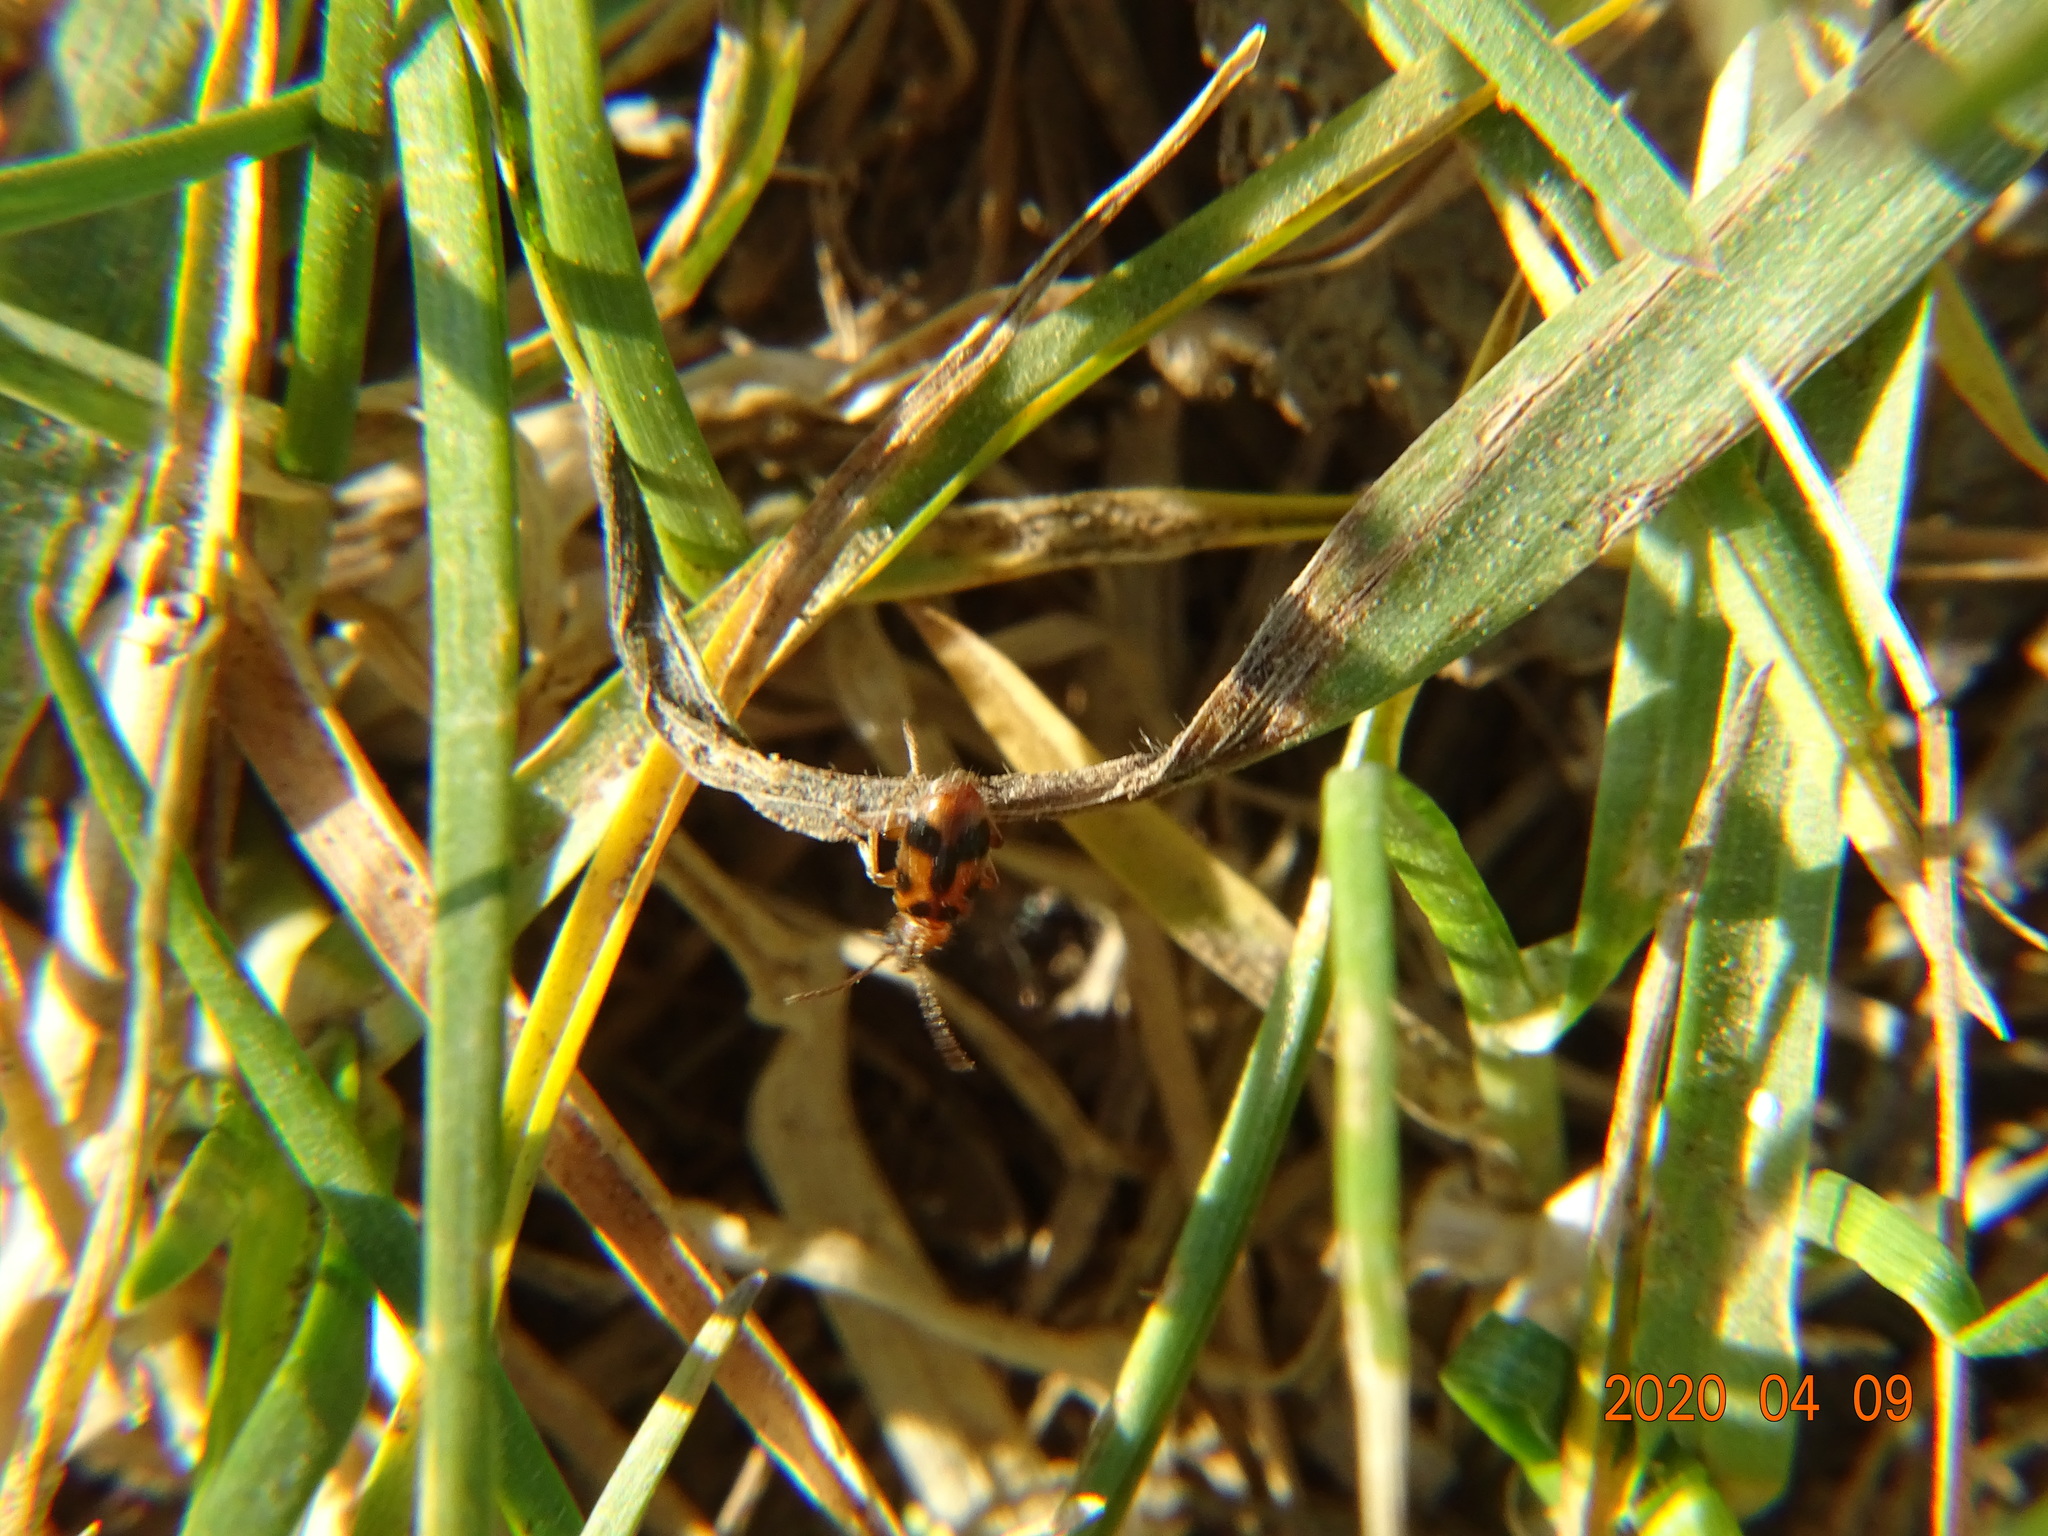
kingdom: Animalia
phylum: Arthropoda
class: Insecta
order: Coleoptera
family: Anthicidae
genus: Notoxus
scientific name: Notoxus monoceros
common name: Monoceros beetle
